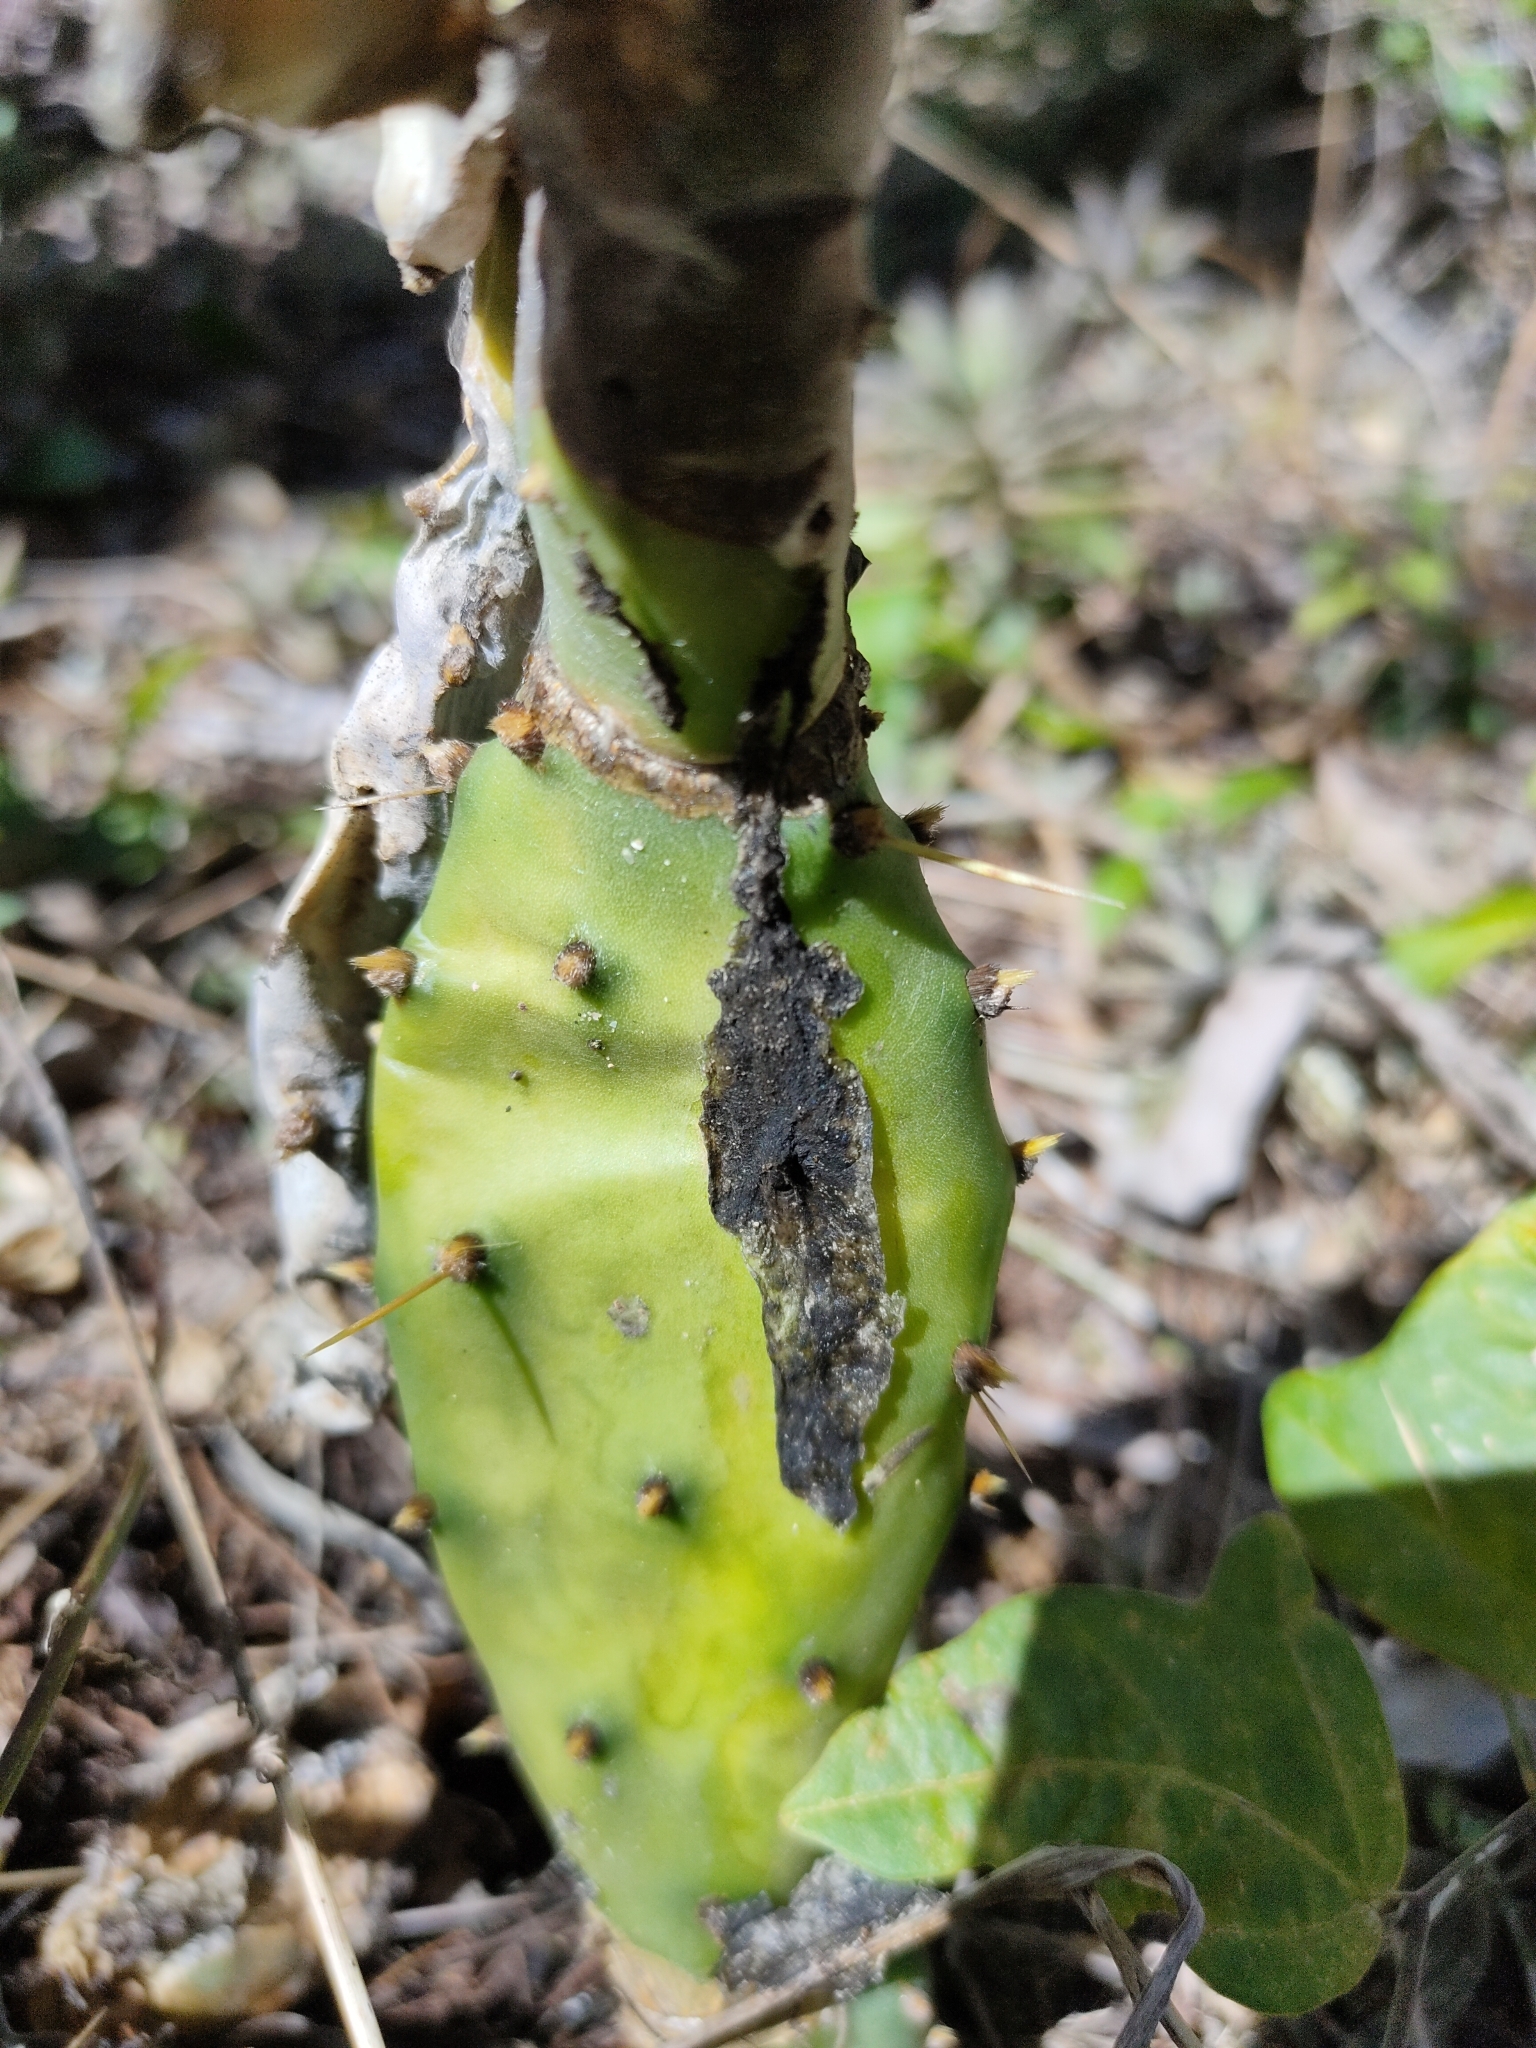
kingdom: Plantae
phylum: Tracheophyta
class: Magnoliopsida
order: Caryophyllales
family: Cactaceae
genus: Opuntia
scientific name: Opuntia stricta
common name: Erect pricklypear
